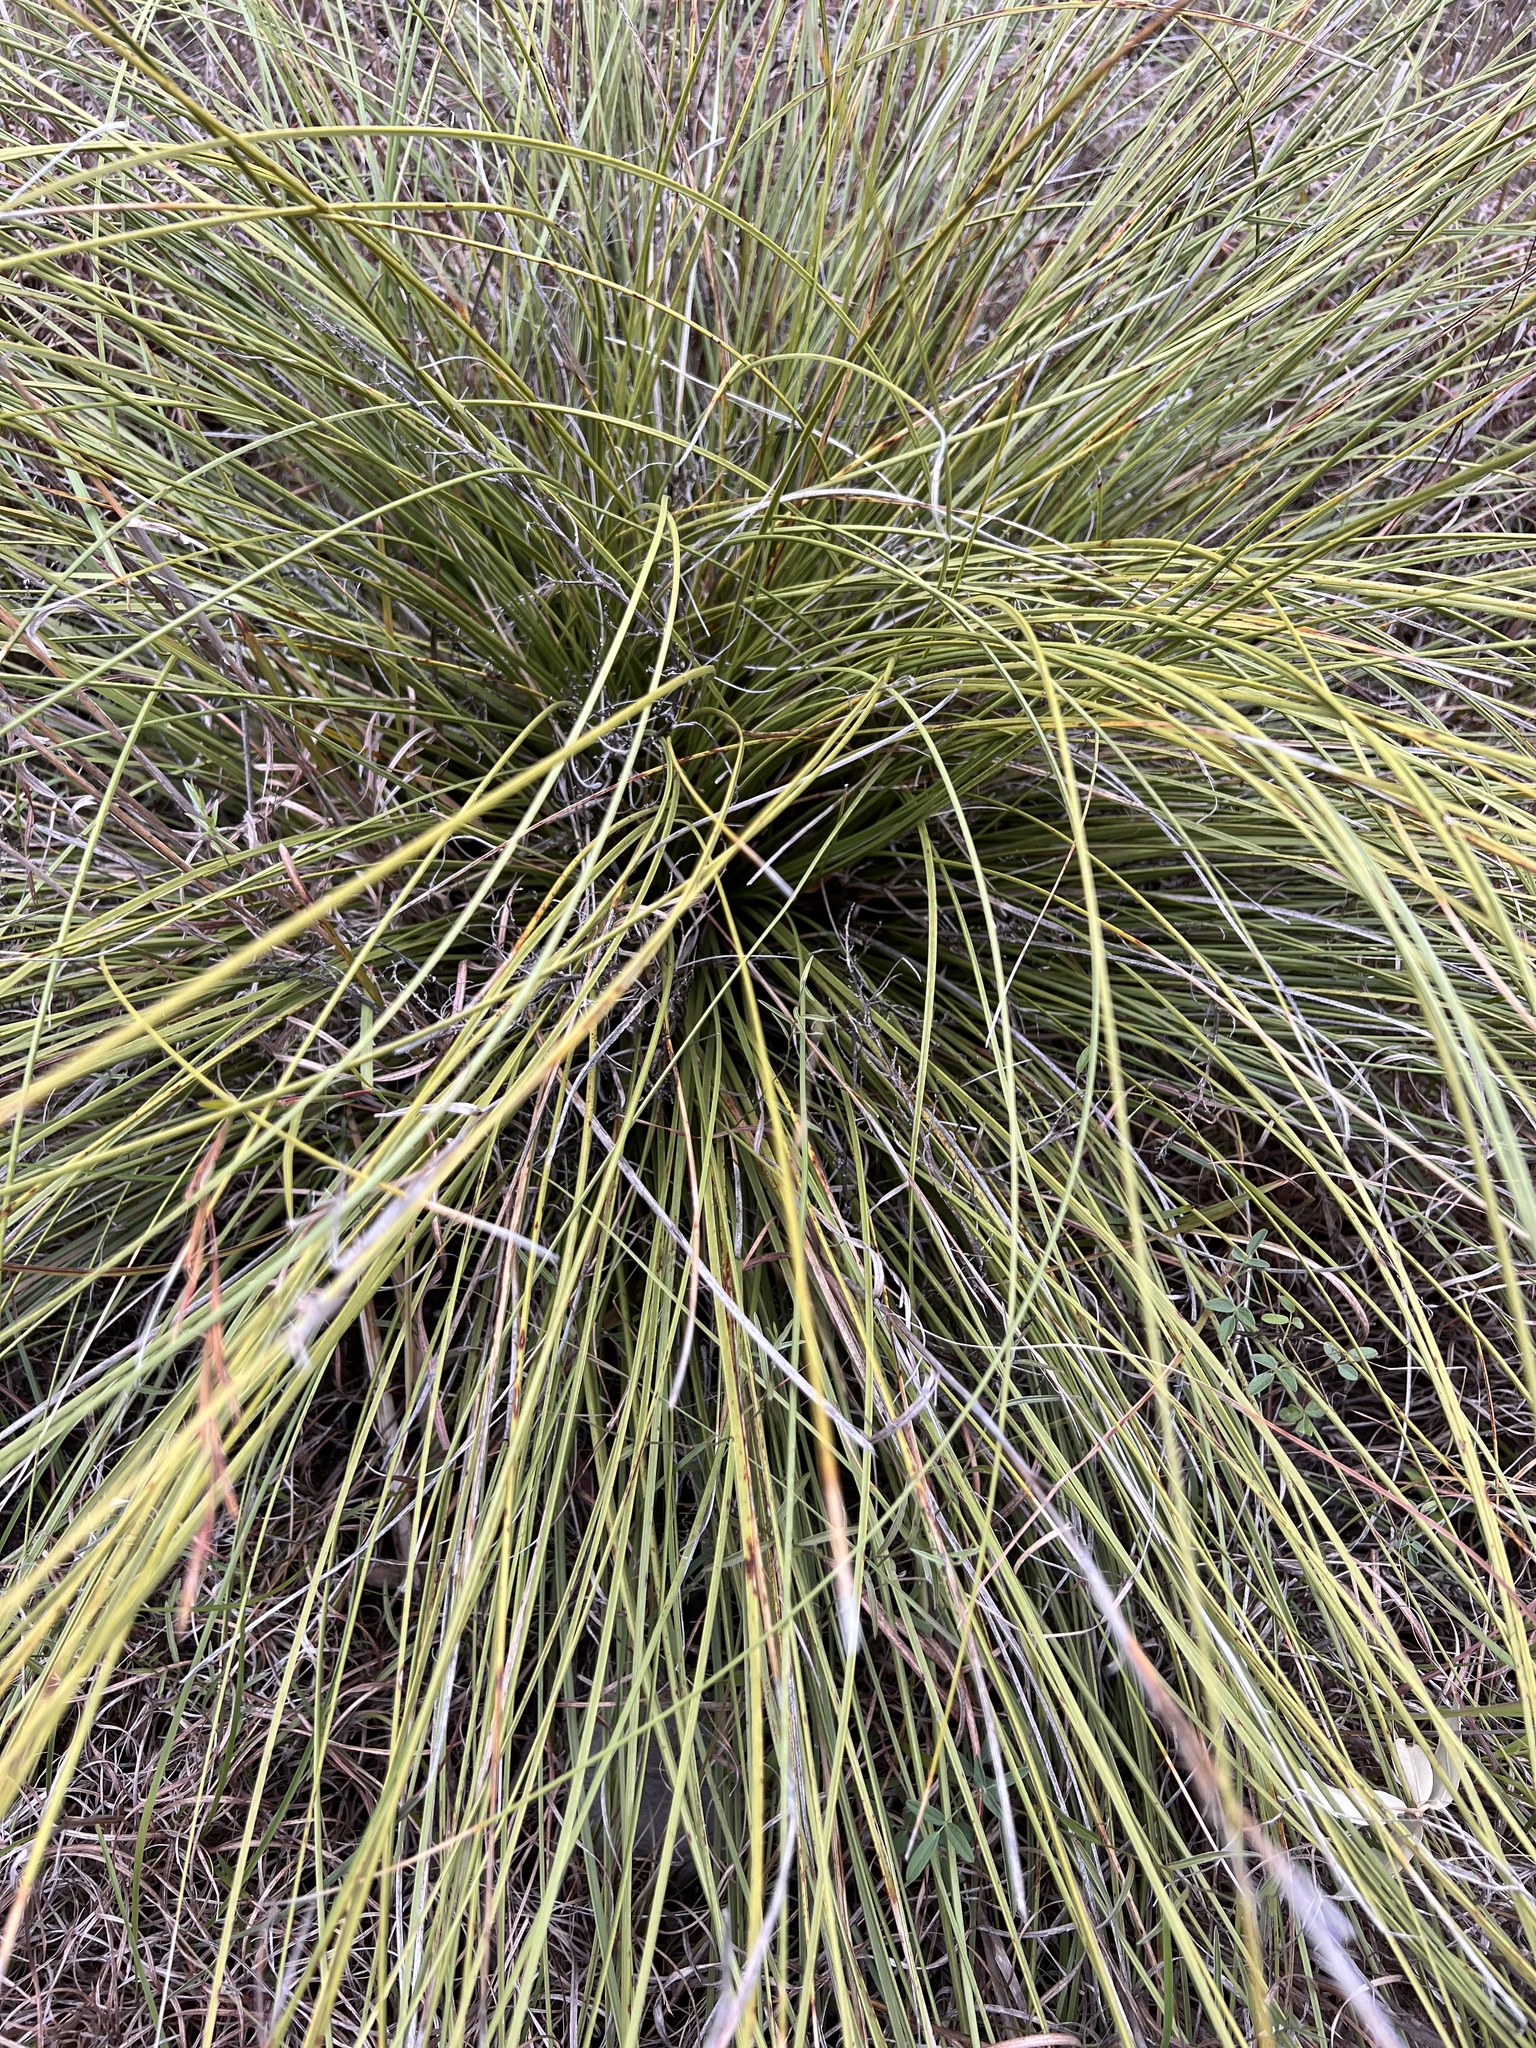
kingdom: Plantae
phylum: Tracheophyta
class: Liliopsida
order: Asparagales
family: Asparagaceae
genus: Nolina
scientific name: Nolina texana
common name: Texas sacahuiste
